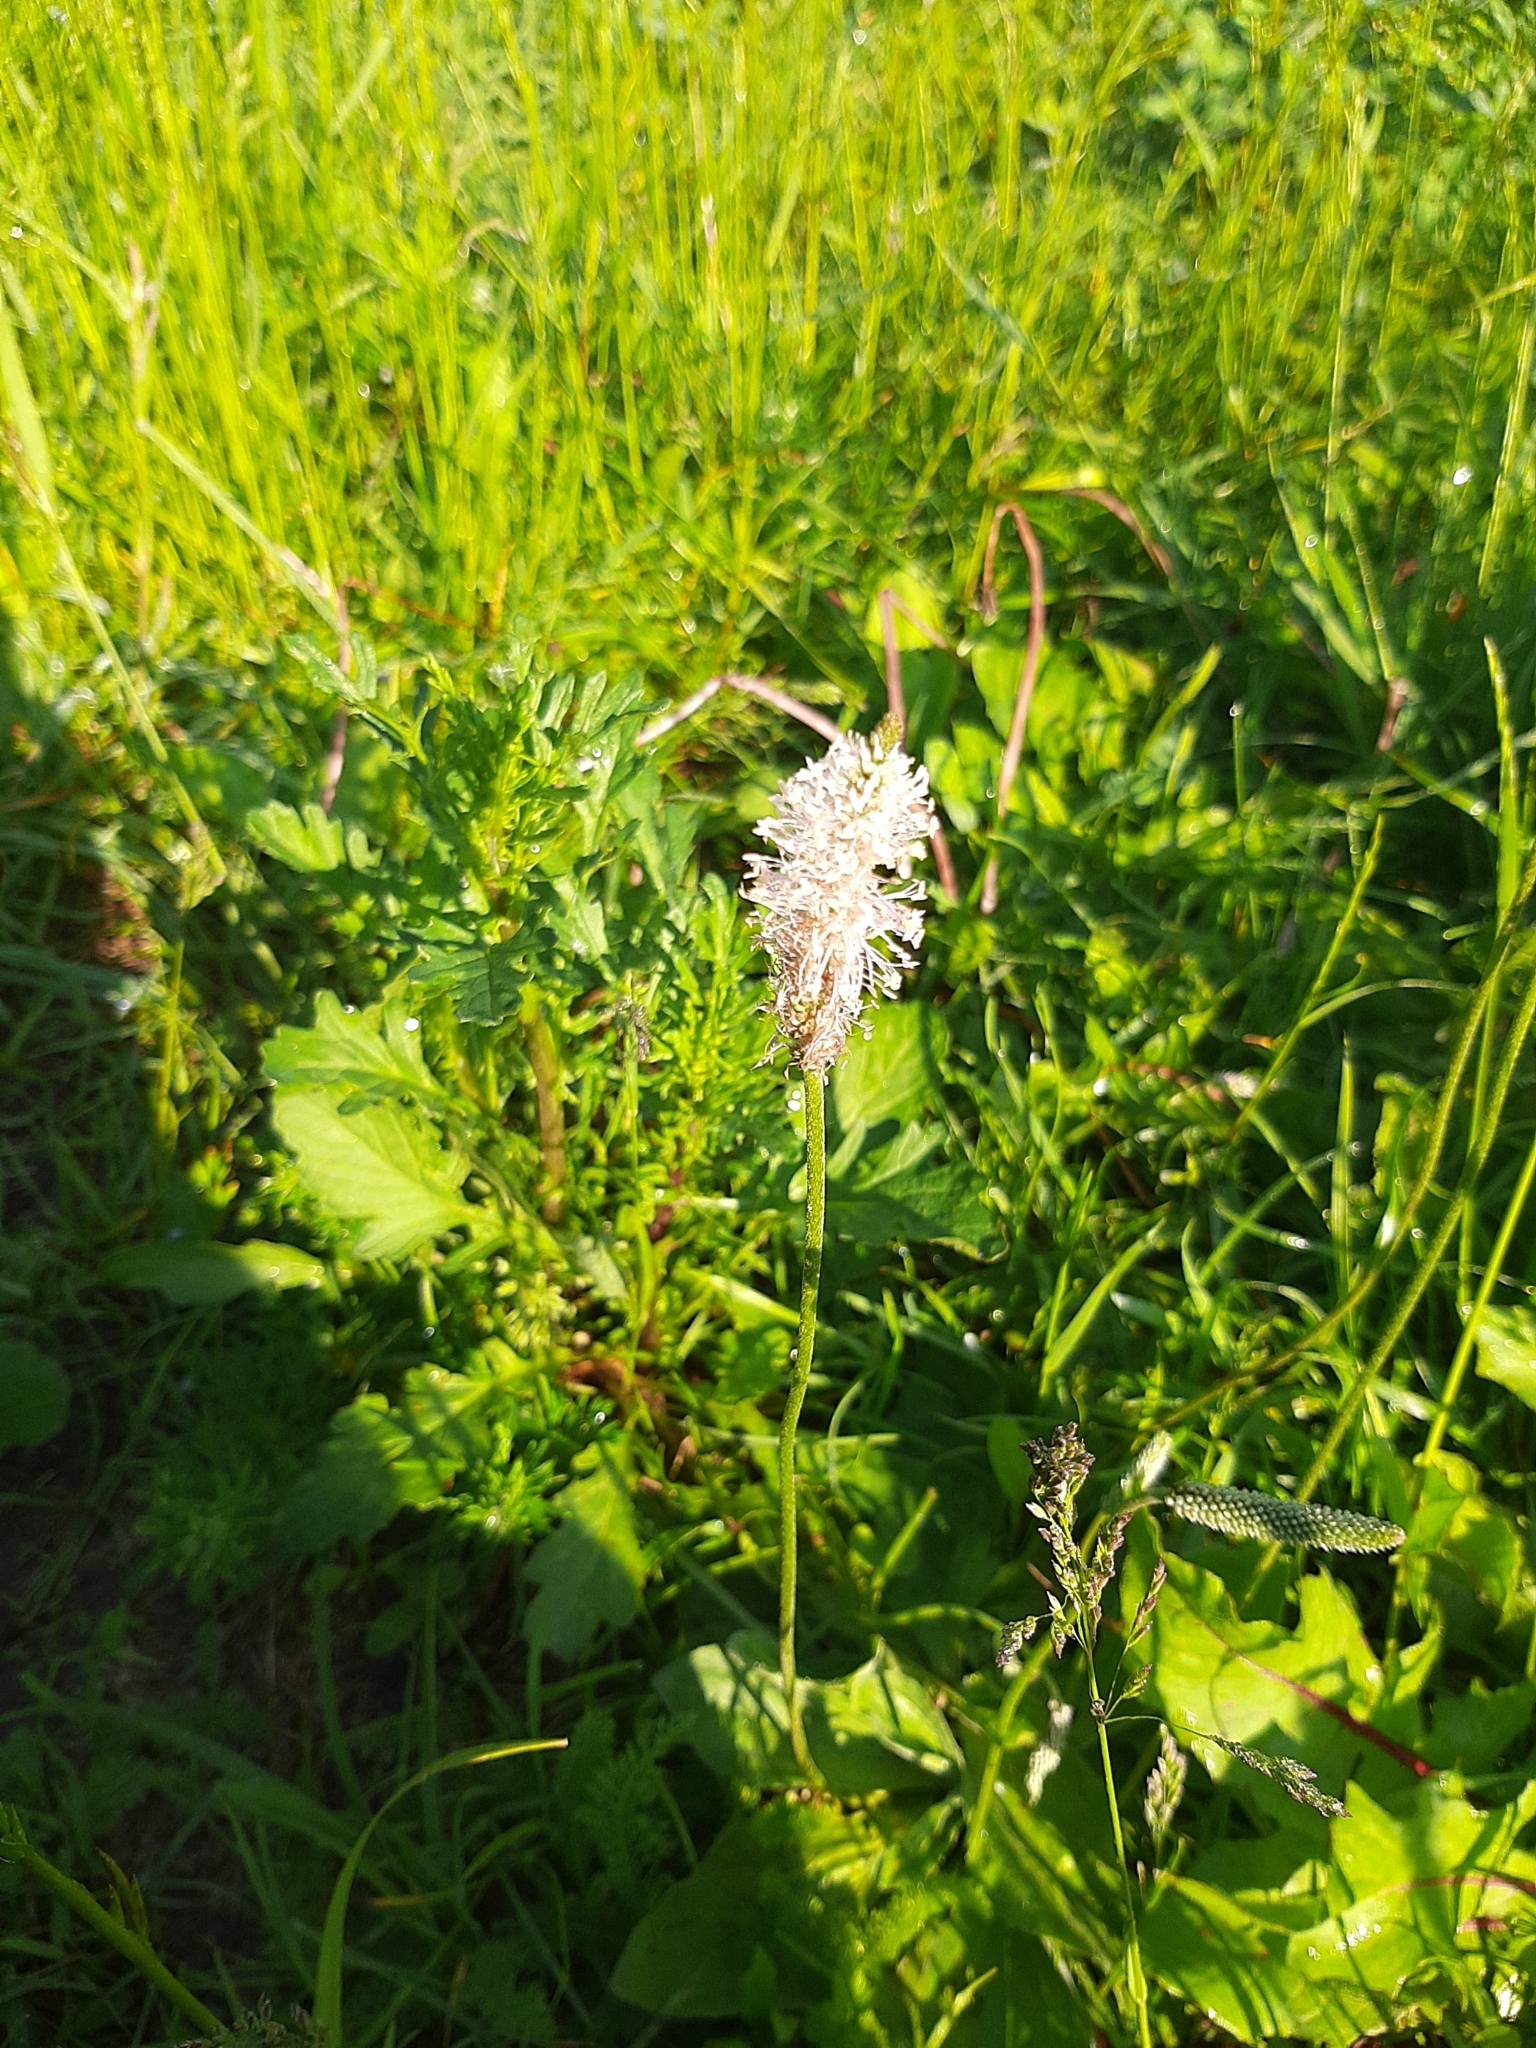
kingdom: Plantae
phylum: Tracheophyta
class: Magnoliopsida
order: Lamiales
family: Plantaginaceae
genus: Plantago
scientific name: Plantago media
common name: Hoary plantain
